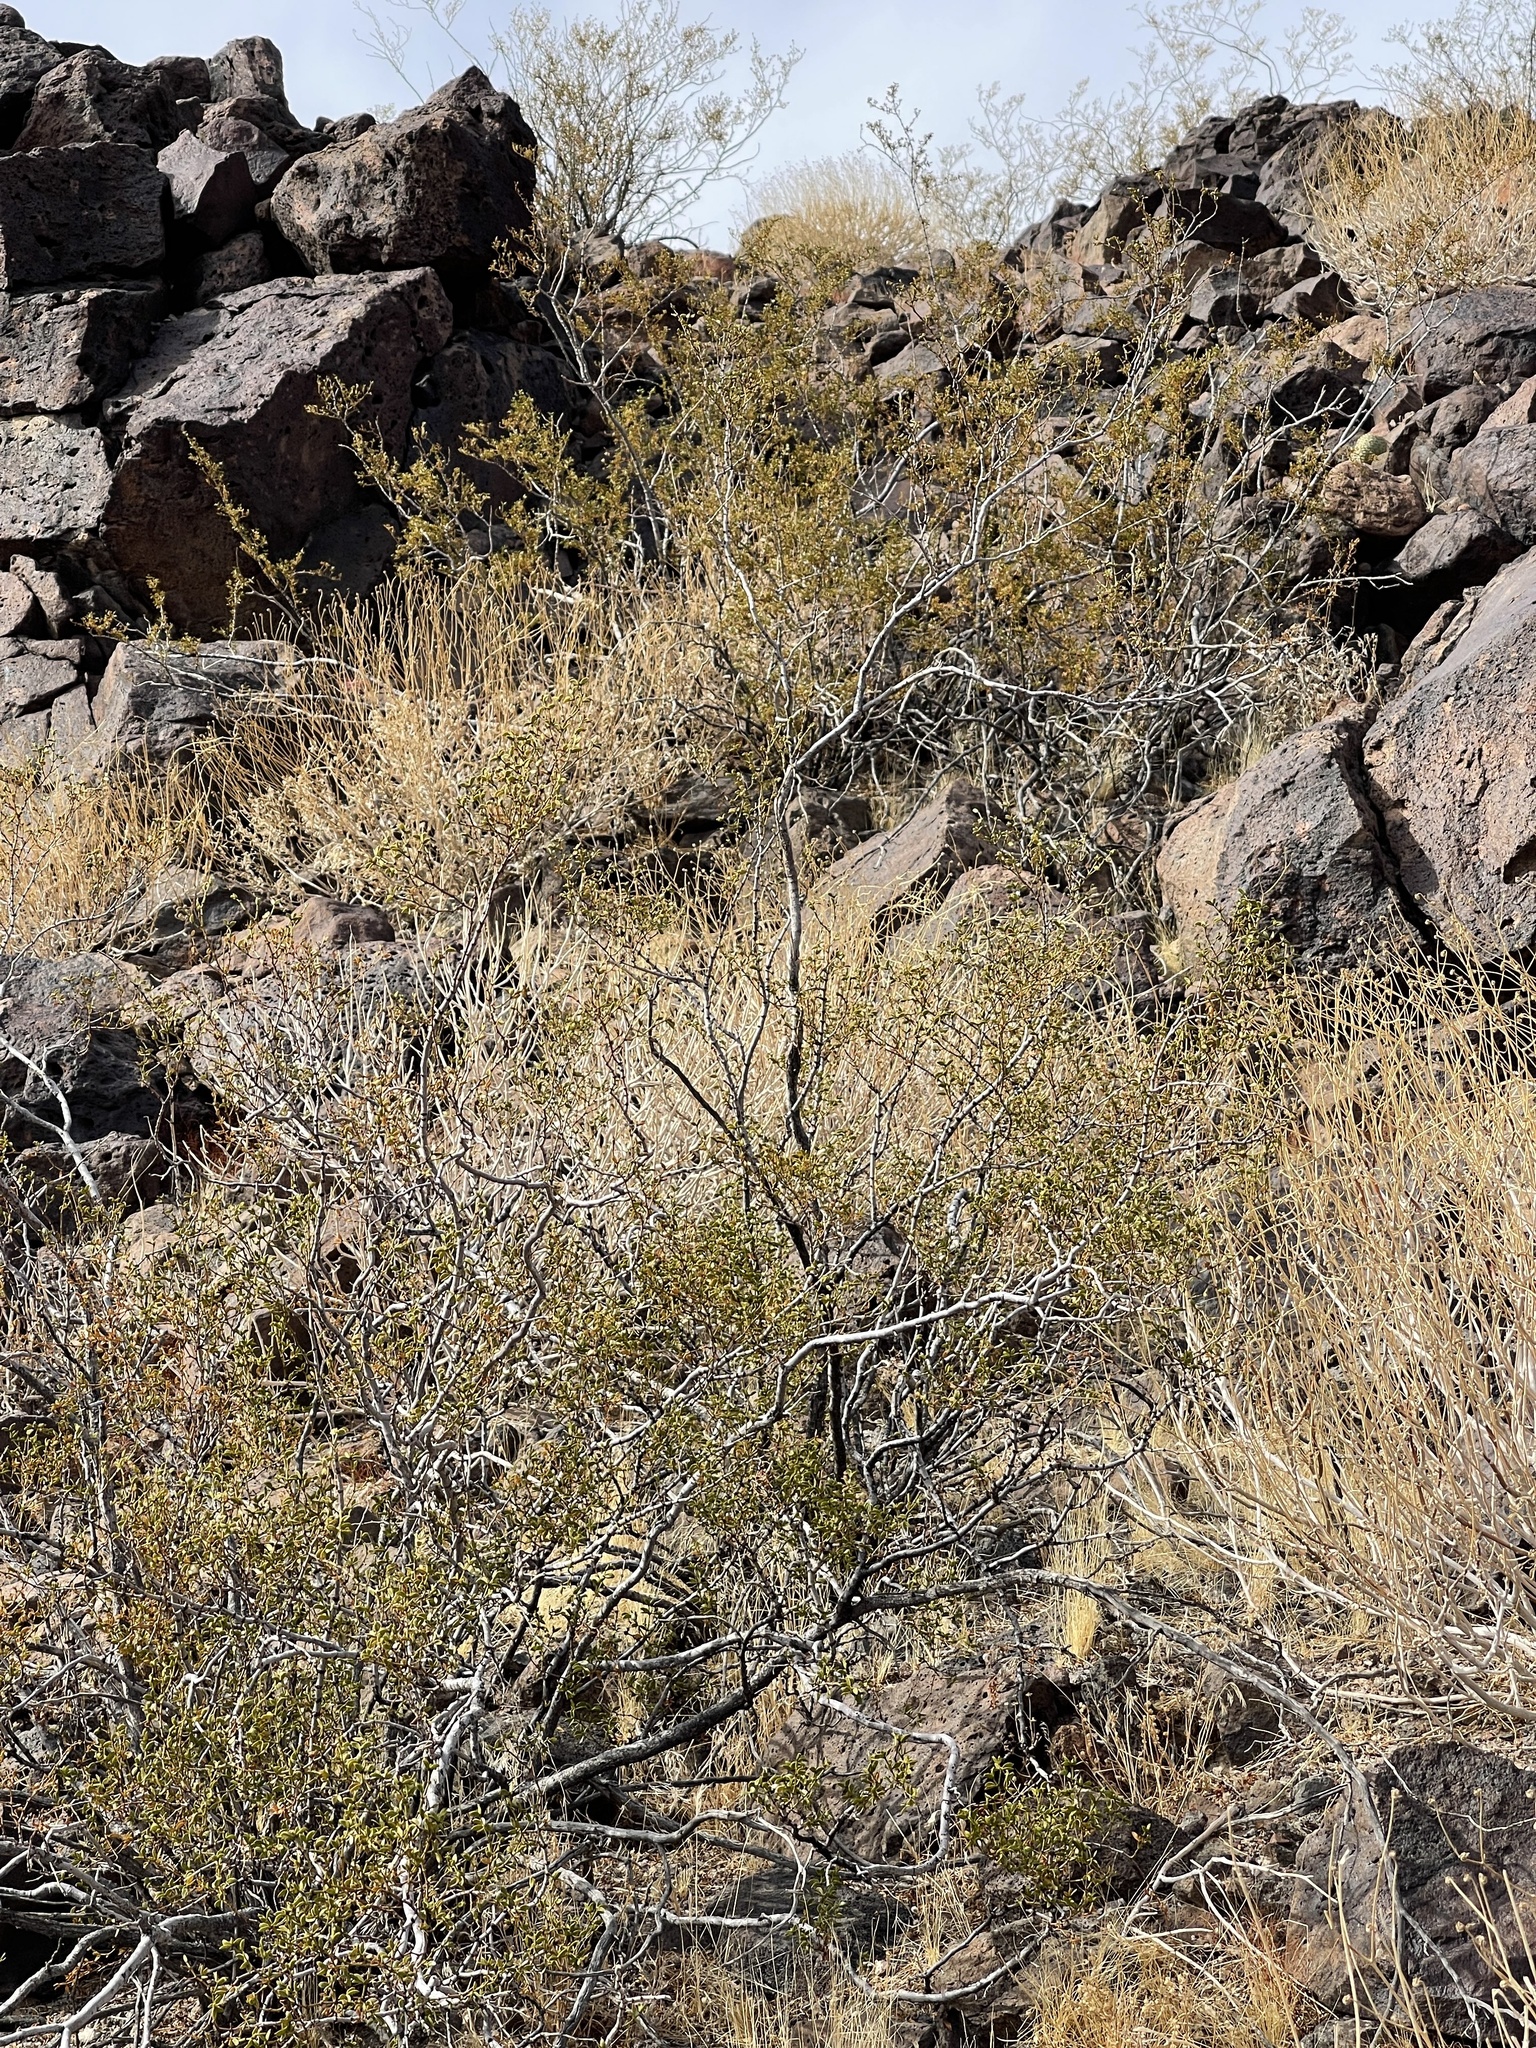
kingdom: Plantae
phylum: Tracheophyta
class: Magnoliopsida
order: Zygophyllales
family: Zygophyllaceae
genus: Larrea
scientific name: Larrea tridentata
